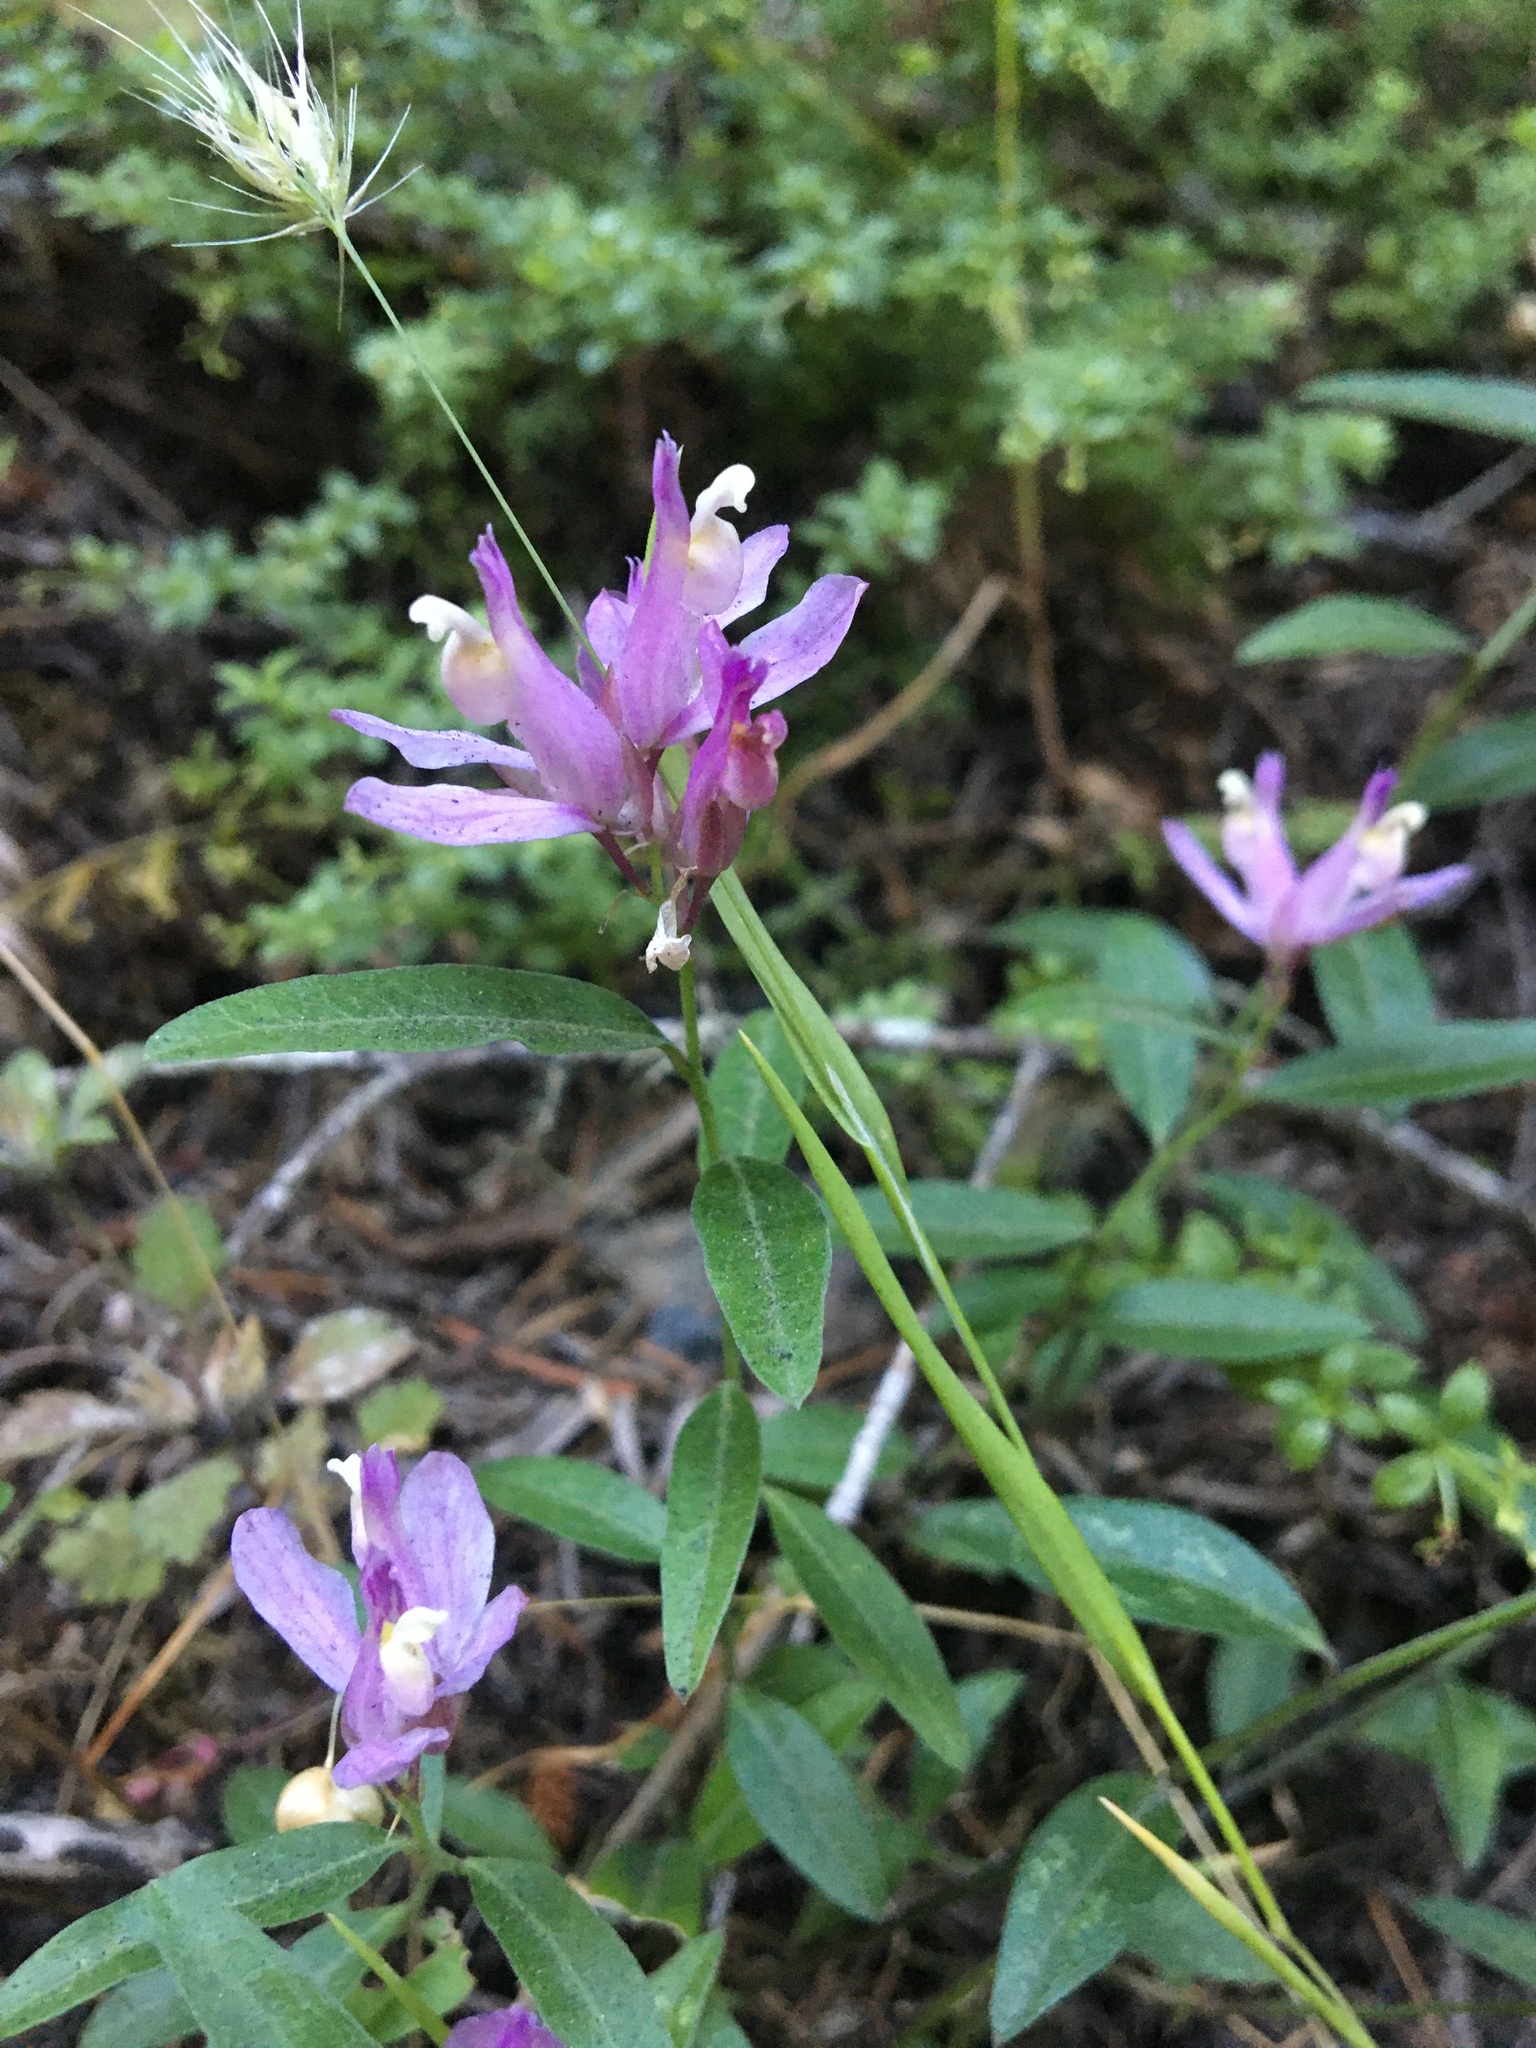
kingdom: Plantae
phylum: Tracheophyta
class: Magnoliopsida
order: Fabales
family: Polygalaceae
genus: Rhinotropis
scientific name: Rhinotropis californica
